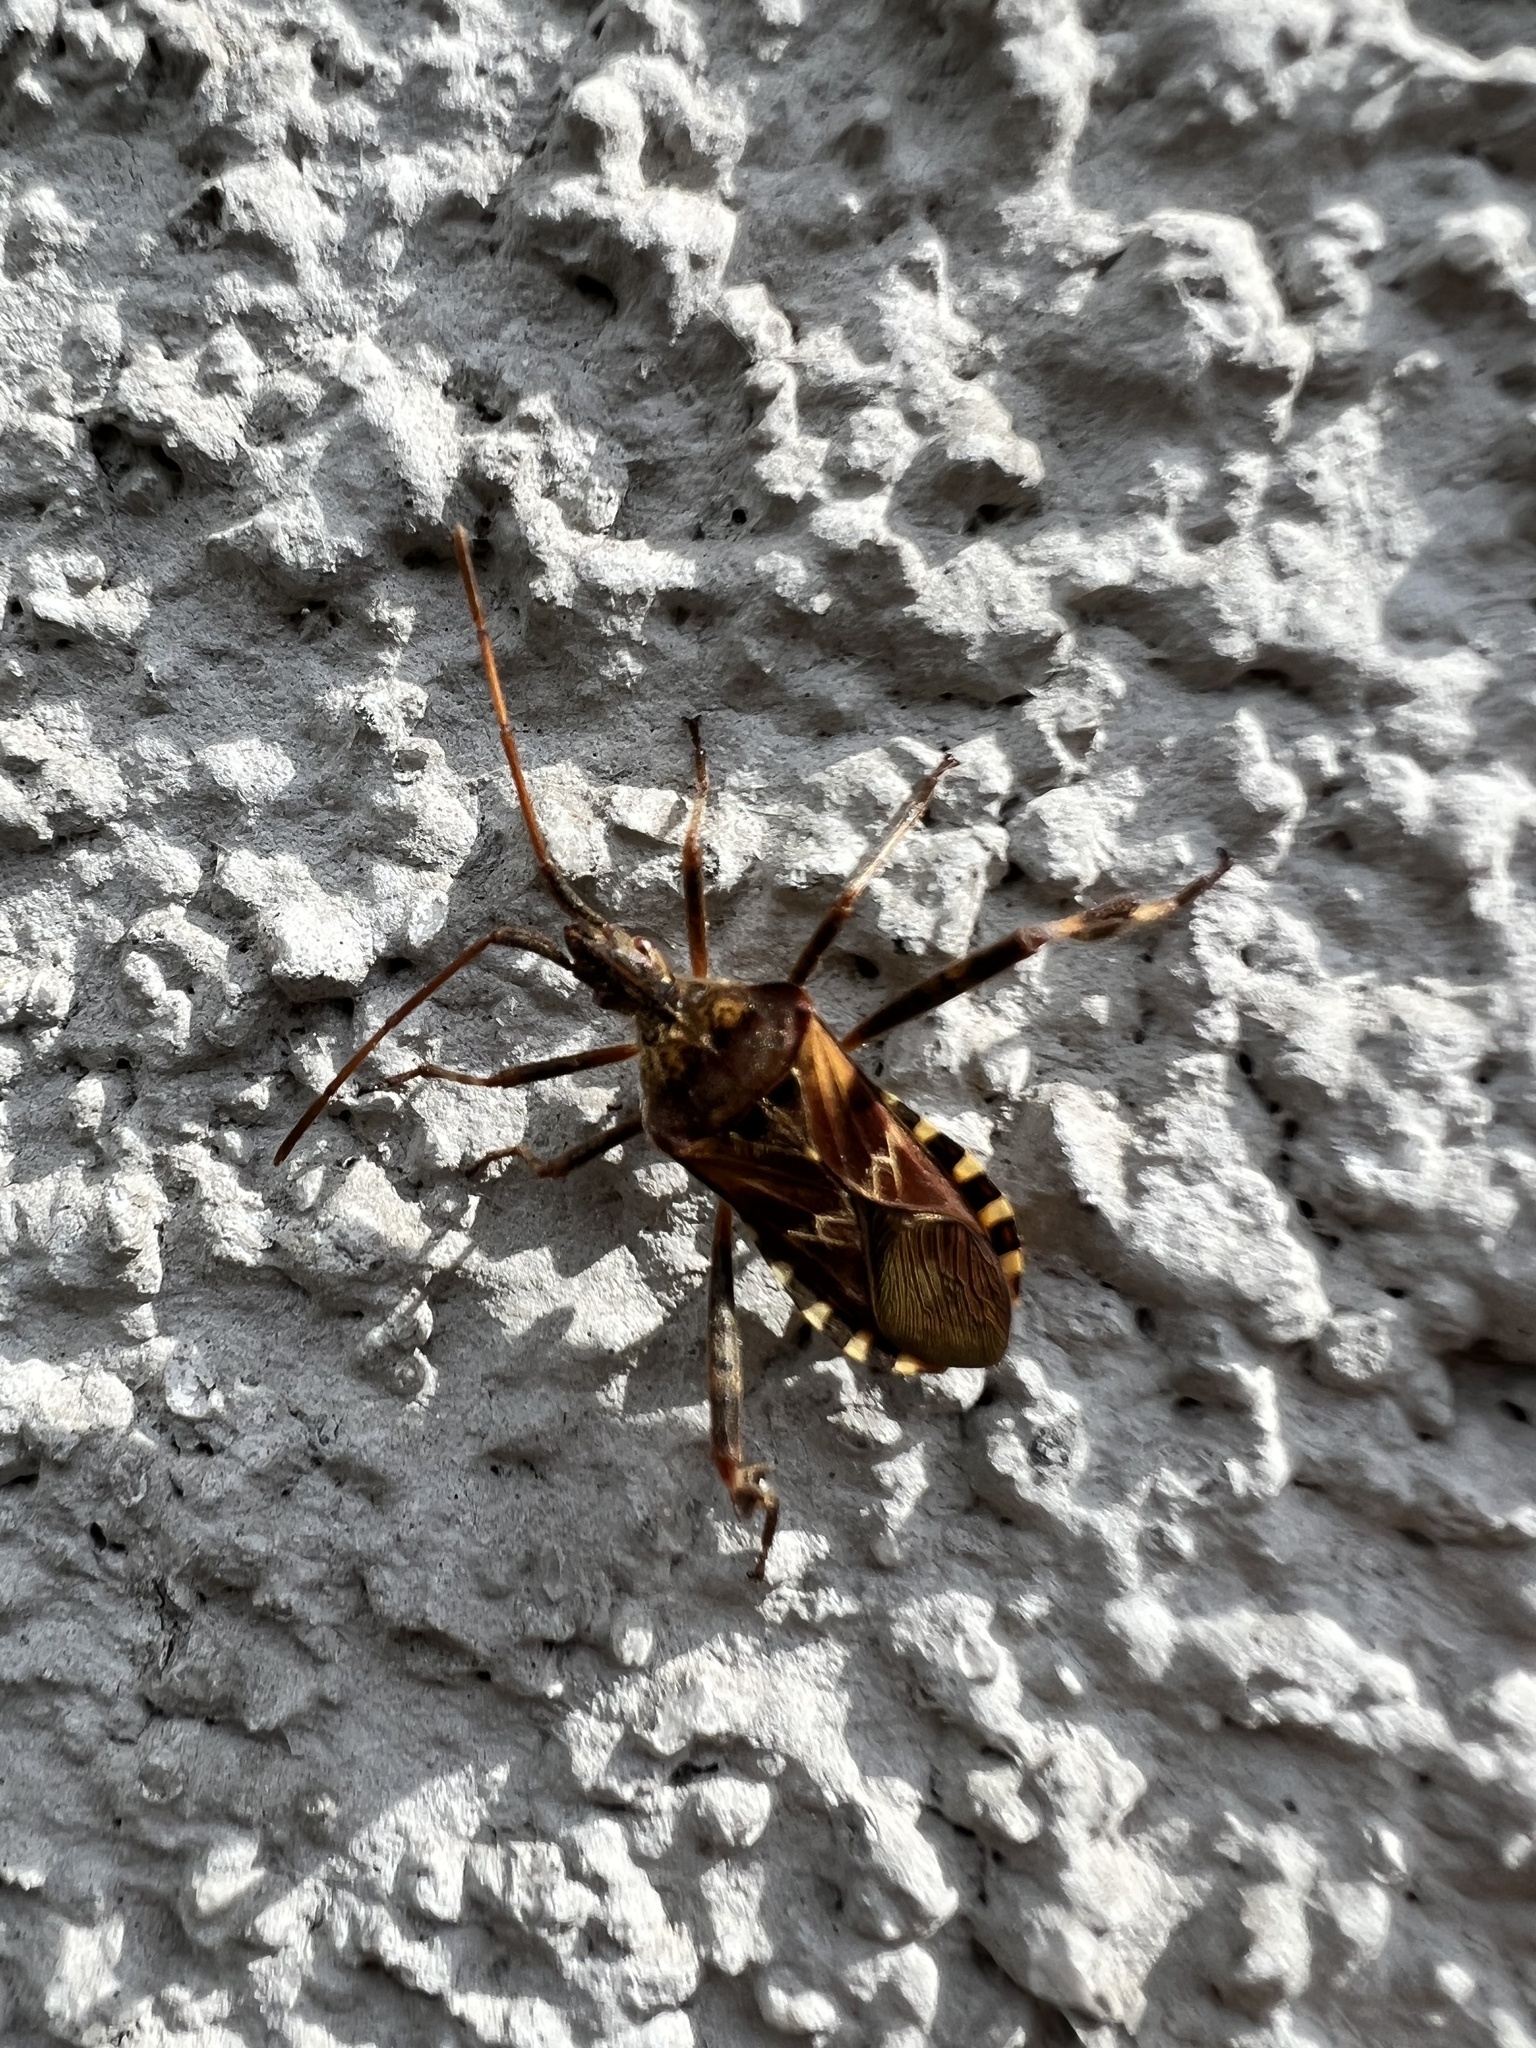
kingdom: Animalia
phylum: Arthropoda
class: Insecta
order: Hemiptera
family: Coreidae
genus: Leptoglossus
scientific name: Leptoglossus occidentalis
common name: Western conifer-seed bug
